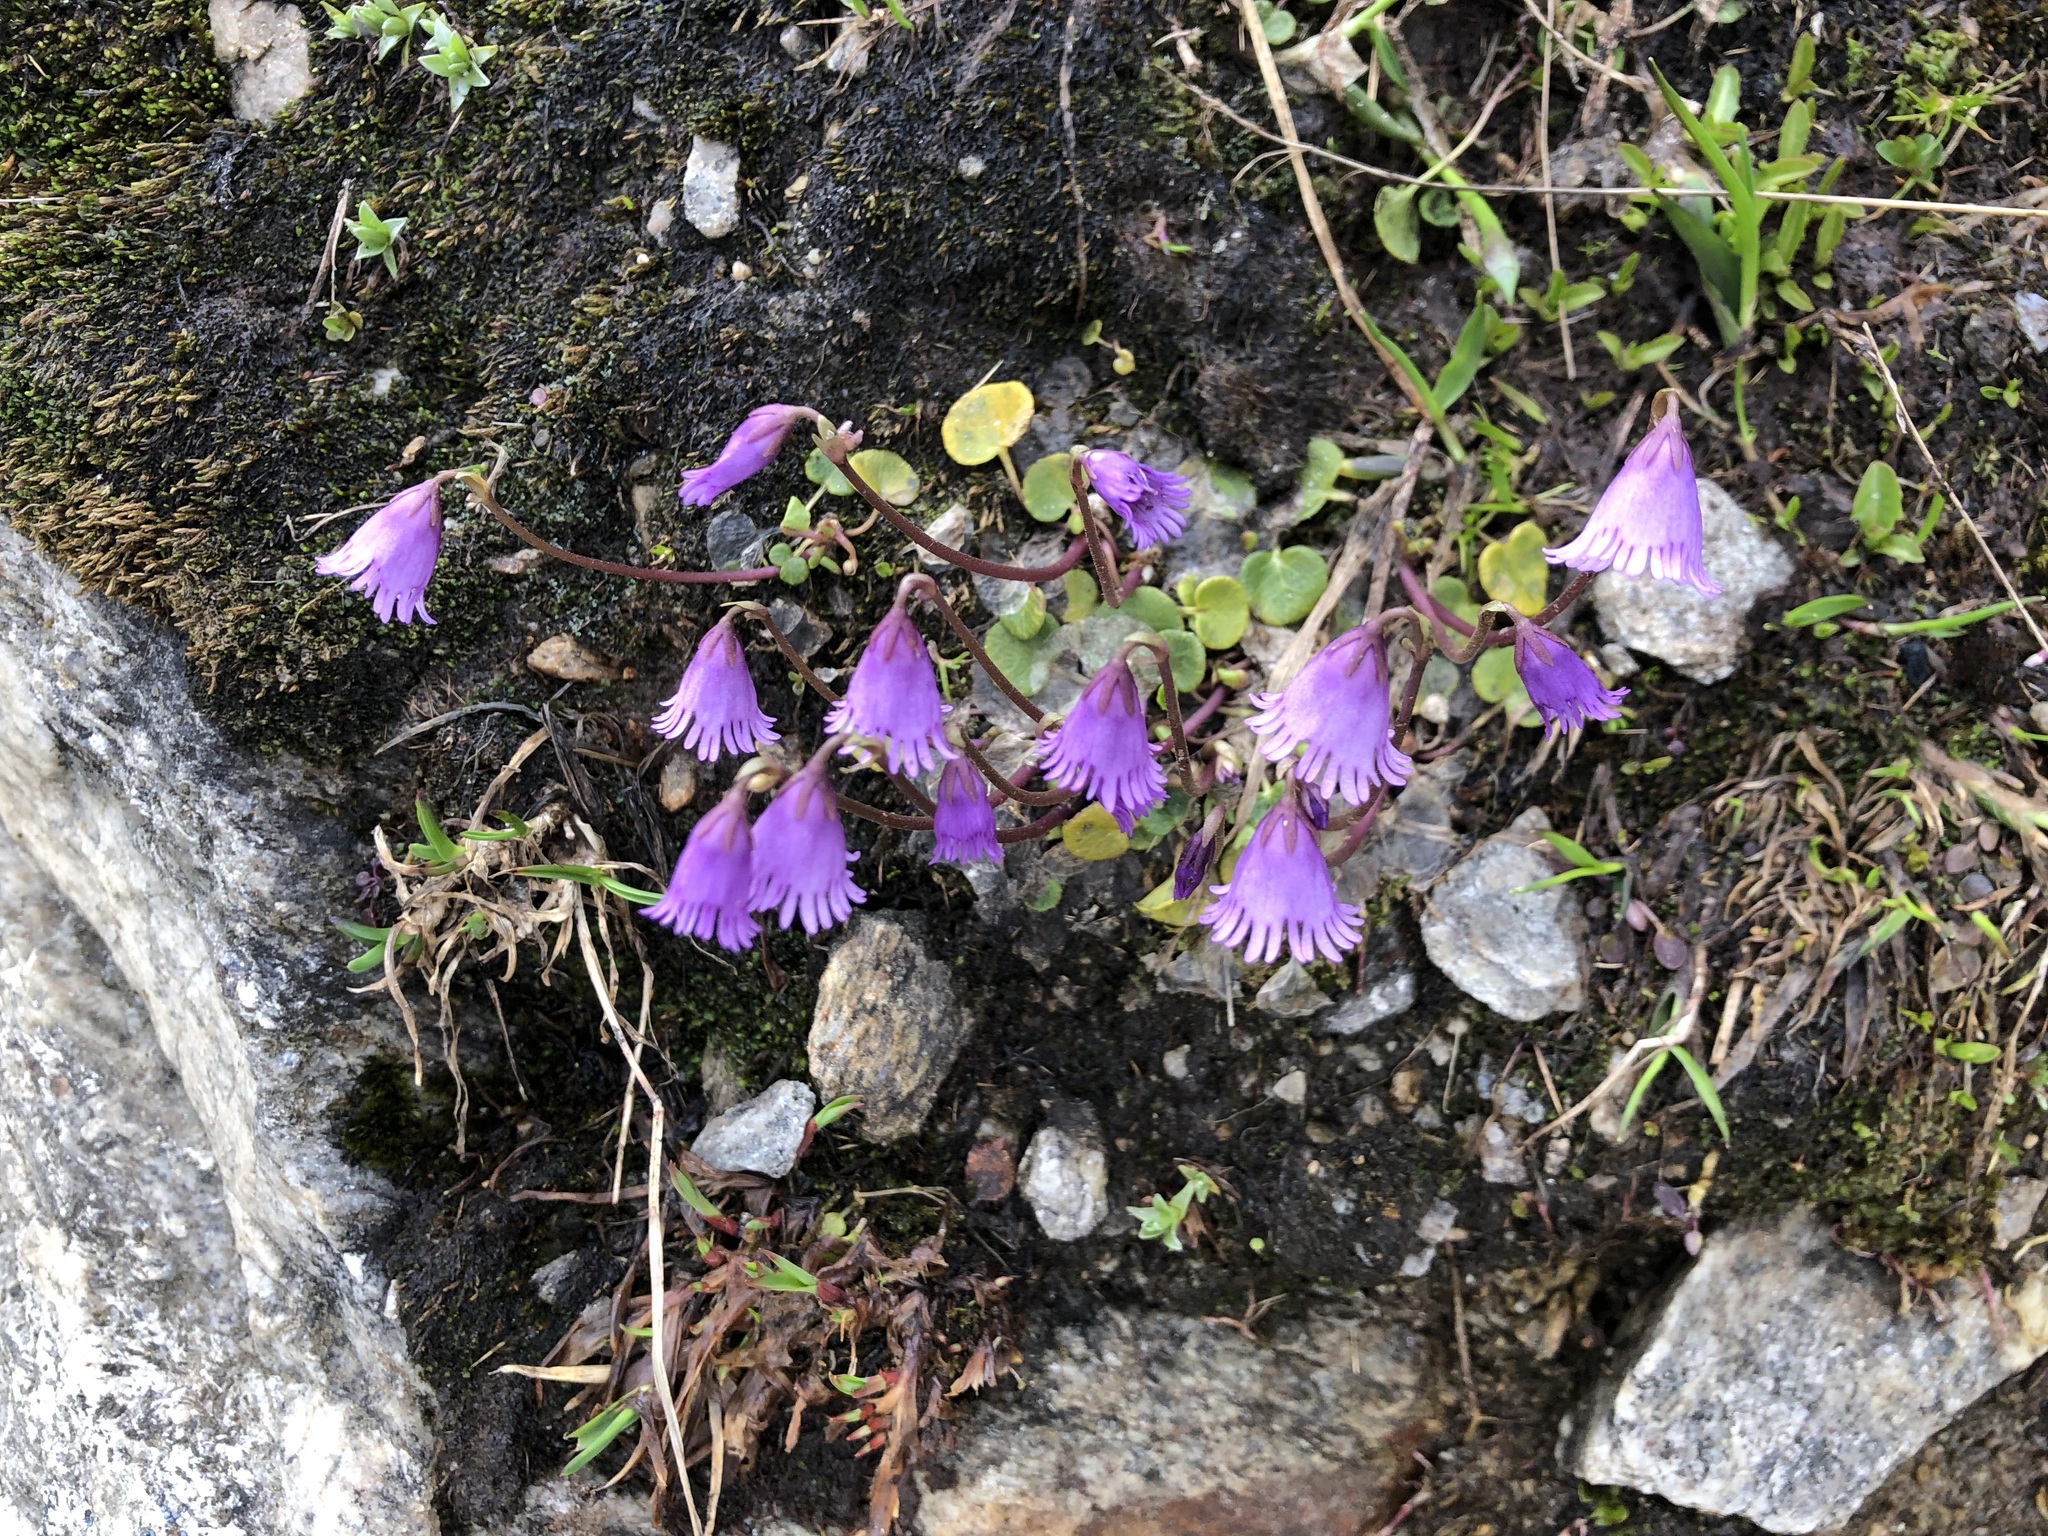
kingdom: Plantae
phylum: Tracheophyta
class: Magnoliopsida
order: Ericales
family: Primulaceae
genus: Soldanella
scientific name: Soldanella alpicola
